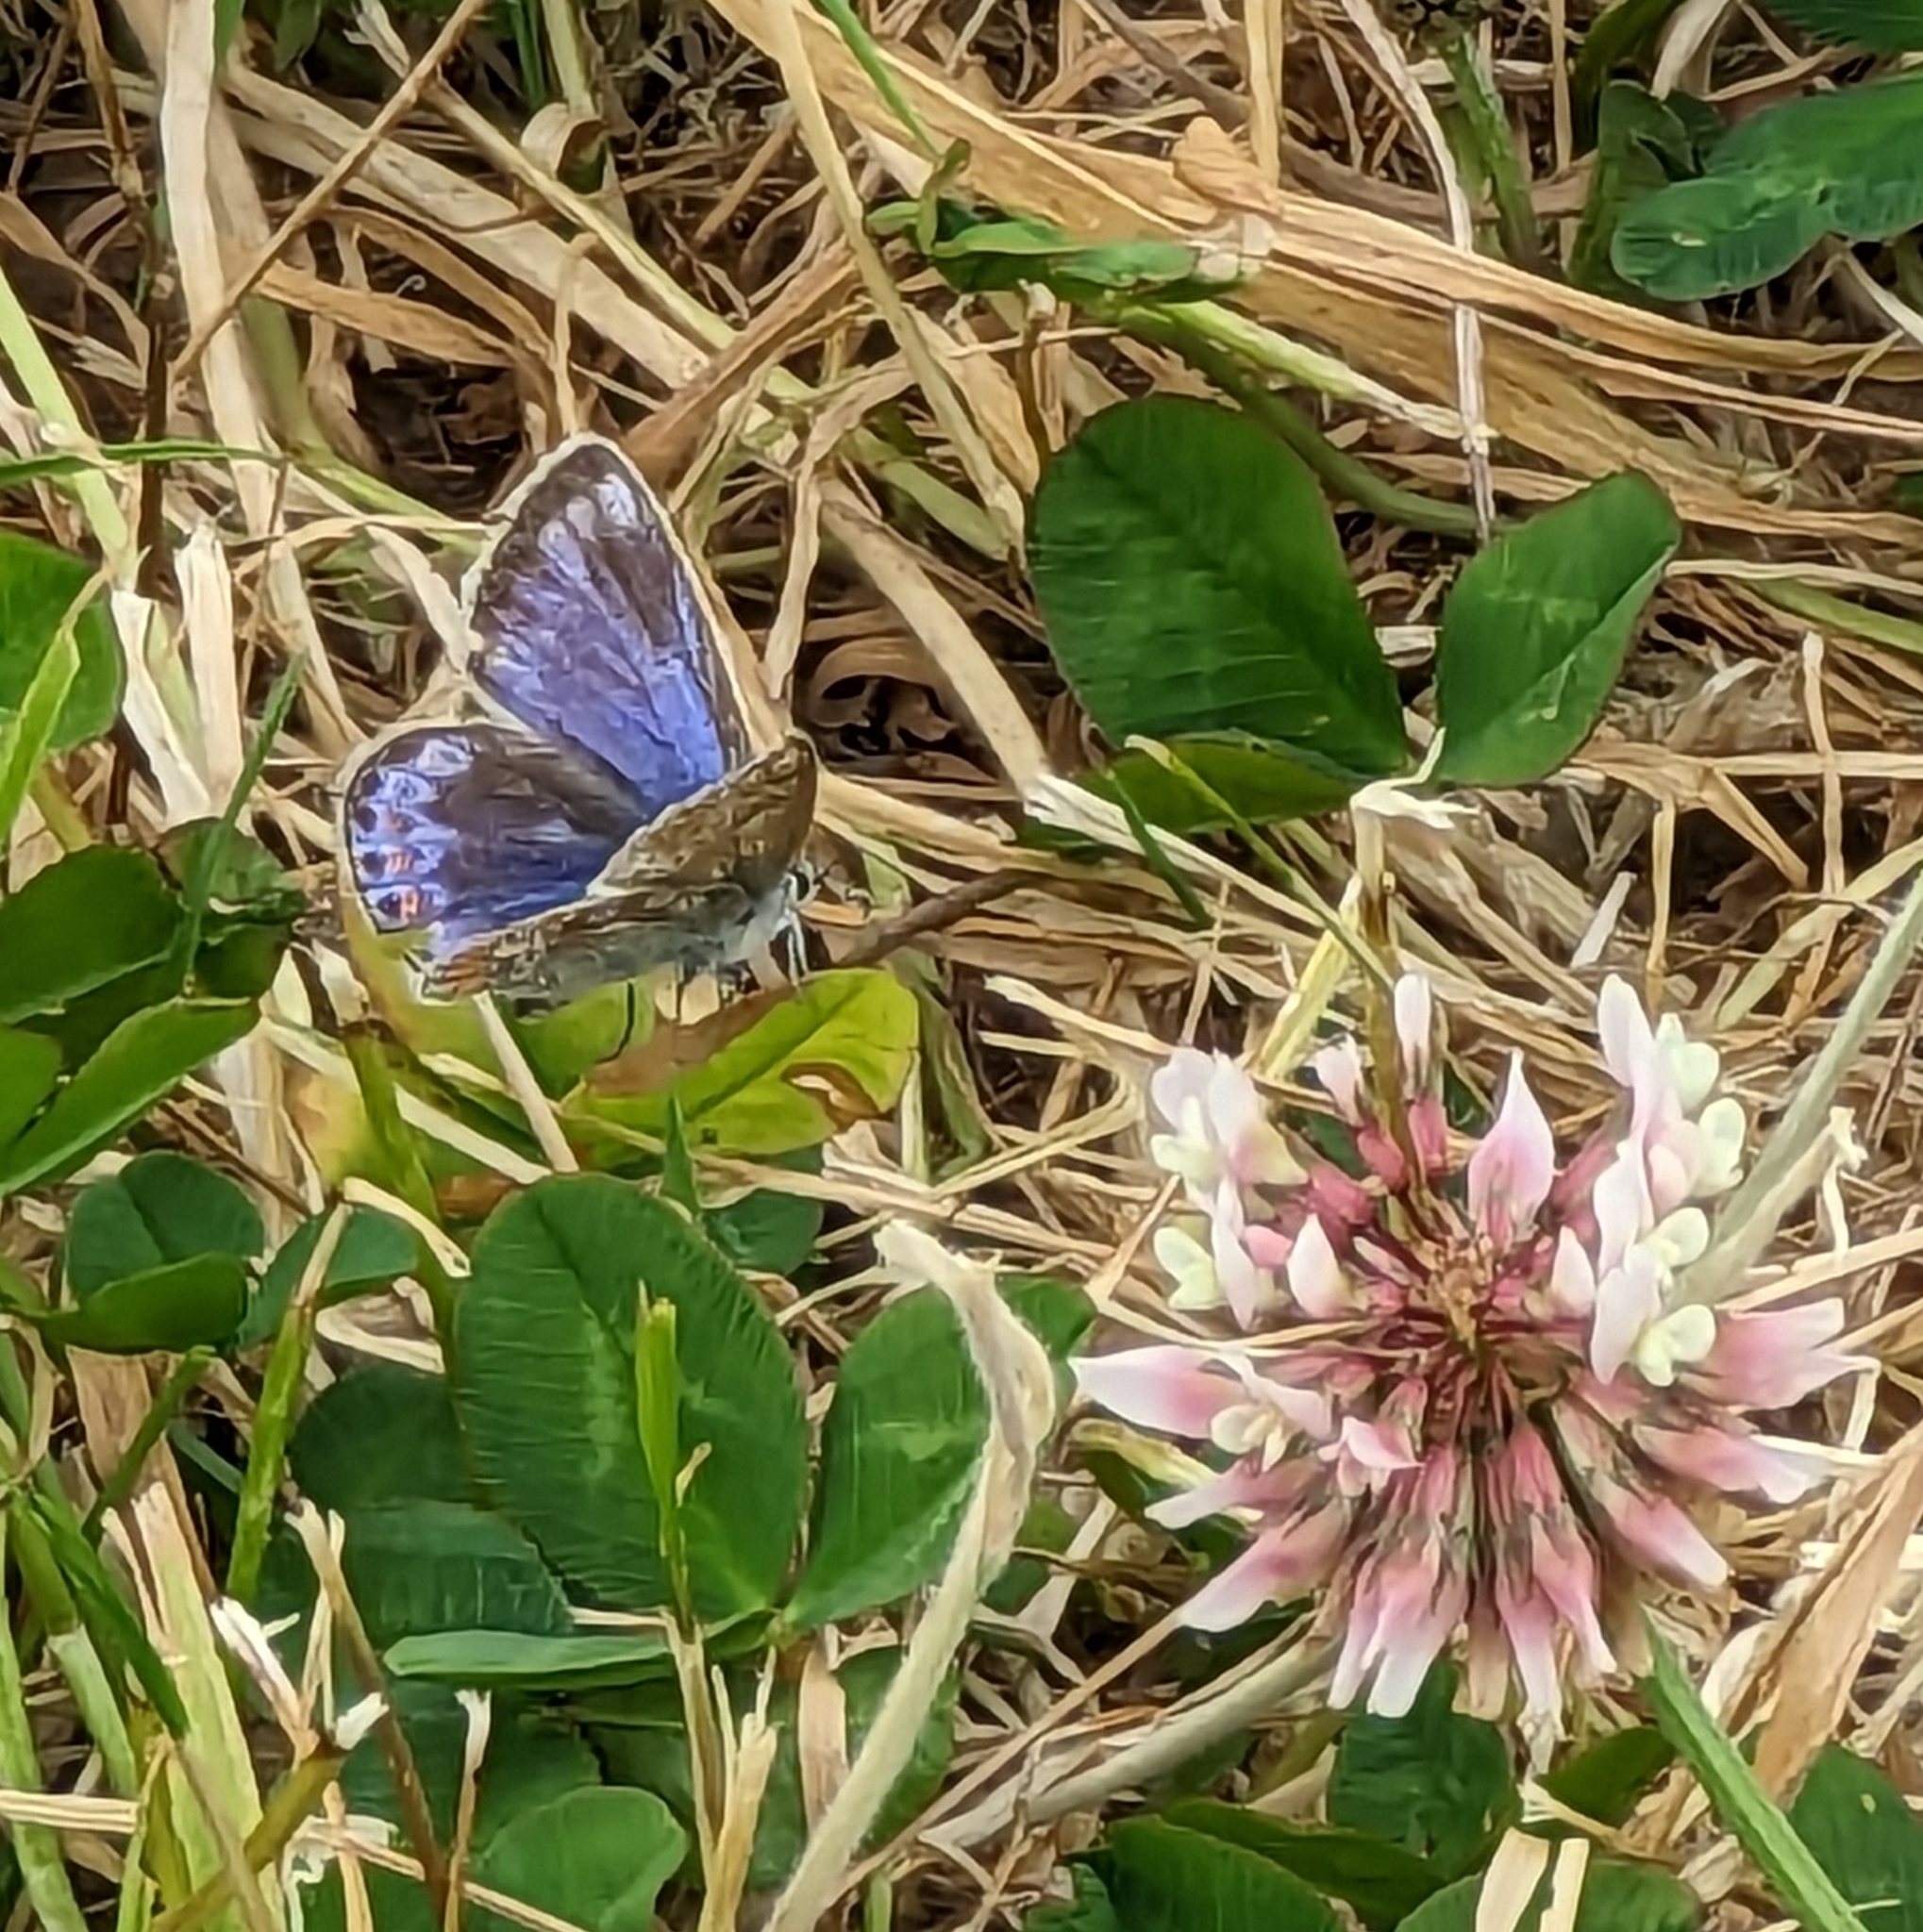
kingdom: Animalia
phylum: Arthropoda
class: Insecta
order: Lepidoptera
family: Lycaenidae
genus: Polyommatus
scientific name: Polyommatus icarus
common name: Common blue
